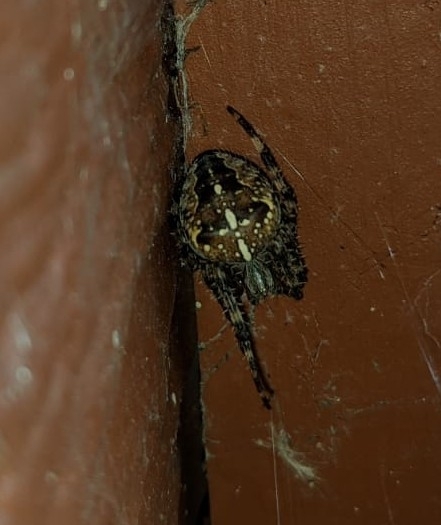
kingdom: Animalia
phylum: Arthropoda
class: Arachnida
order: Araneae
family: Araneidae
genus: Araneus
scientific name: Araneus diadematus
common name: Cross orbweaver
